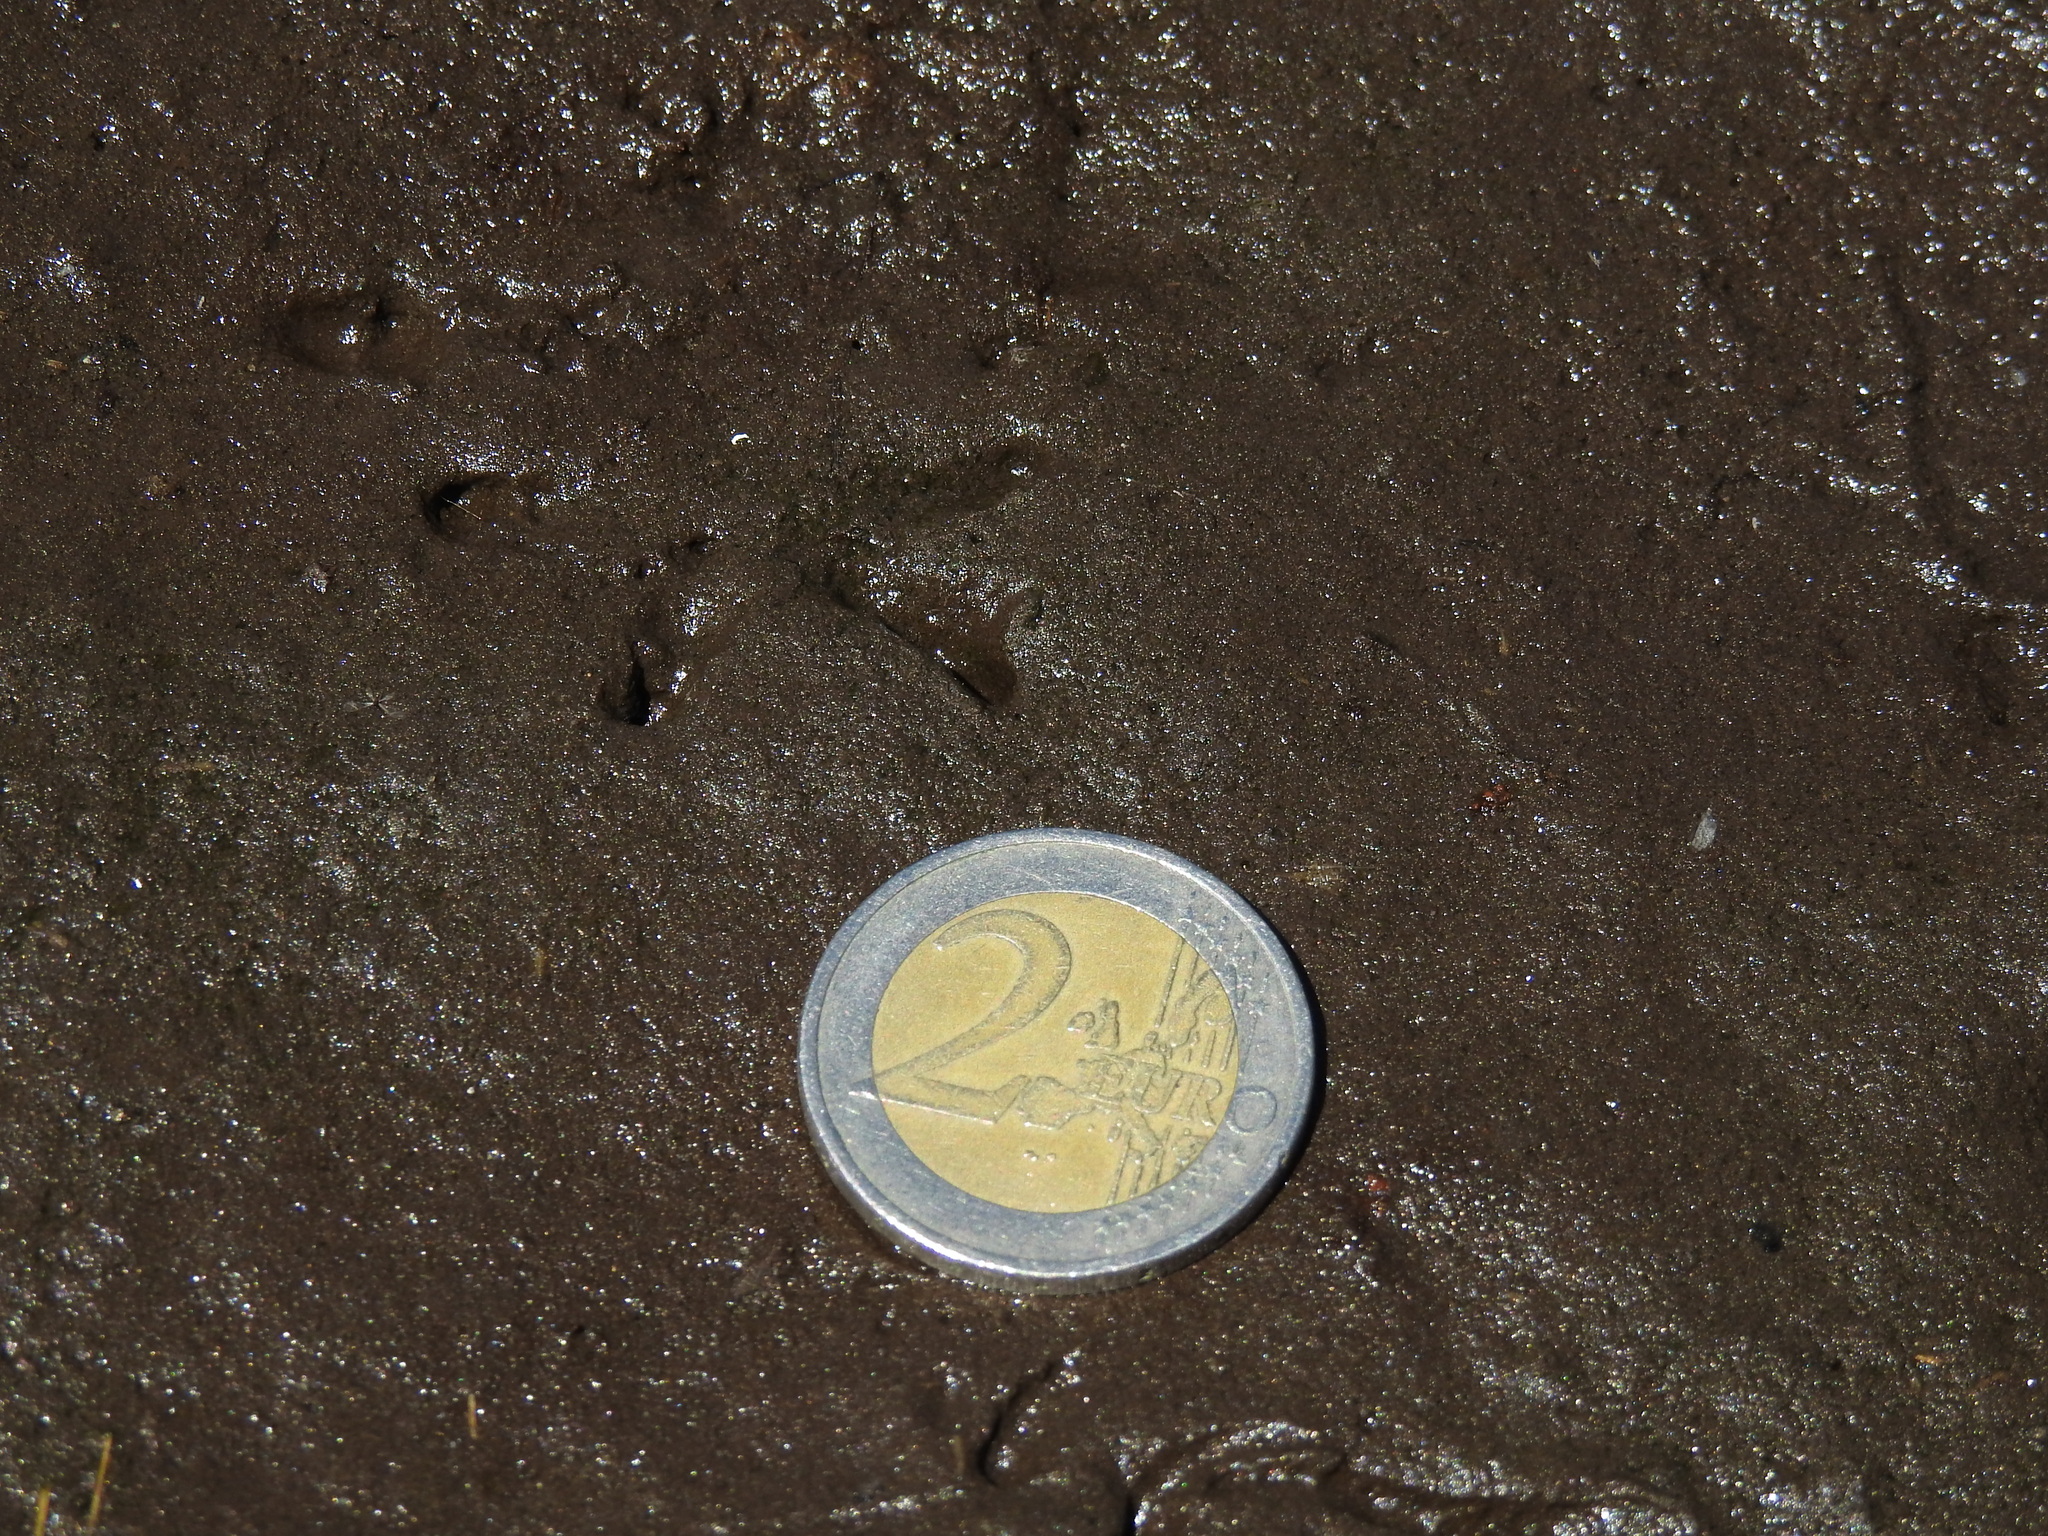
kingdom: Animalia
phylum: Chordata
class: Amphibia
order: Caudata
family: Salamandridae
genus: Salamandra
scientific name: Salamandra salamandra
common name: Fire salamander
